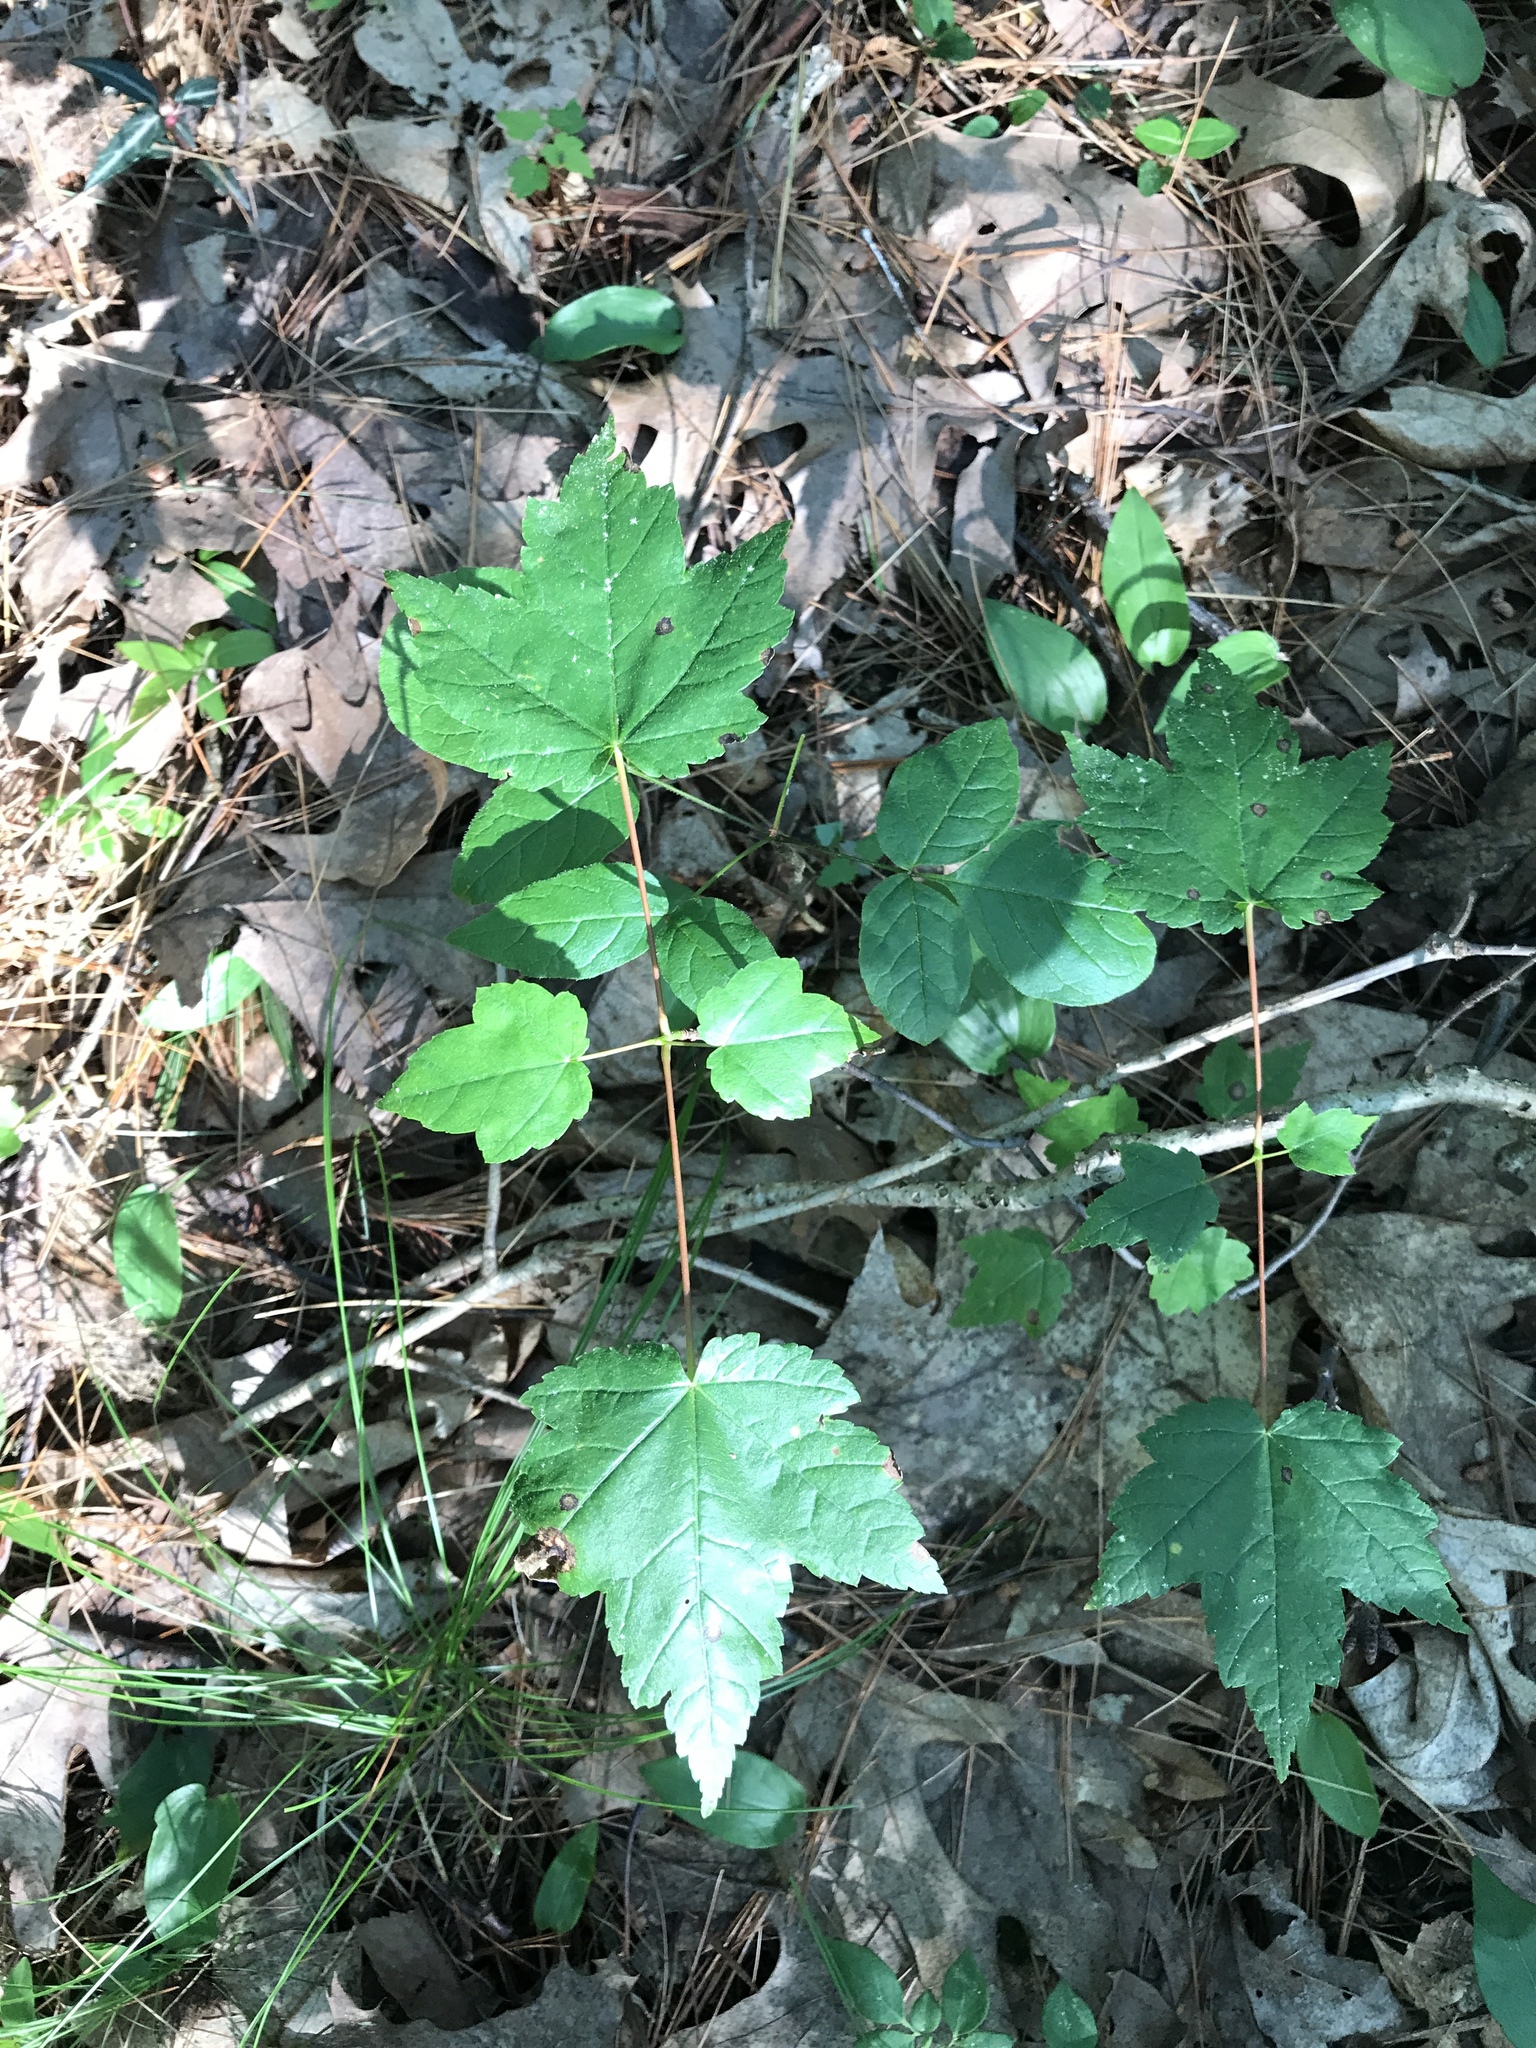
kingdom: Plantae
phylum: Tracheophyta
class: Magnoliopsida
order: Sapindales
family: Sapindaceae
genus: Acer
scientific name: Acer rubrum
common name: Red maple
